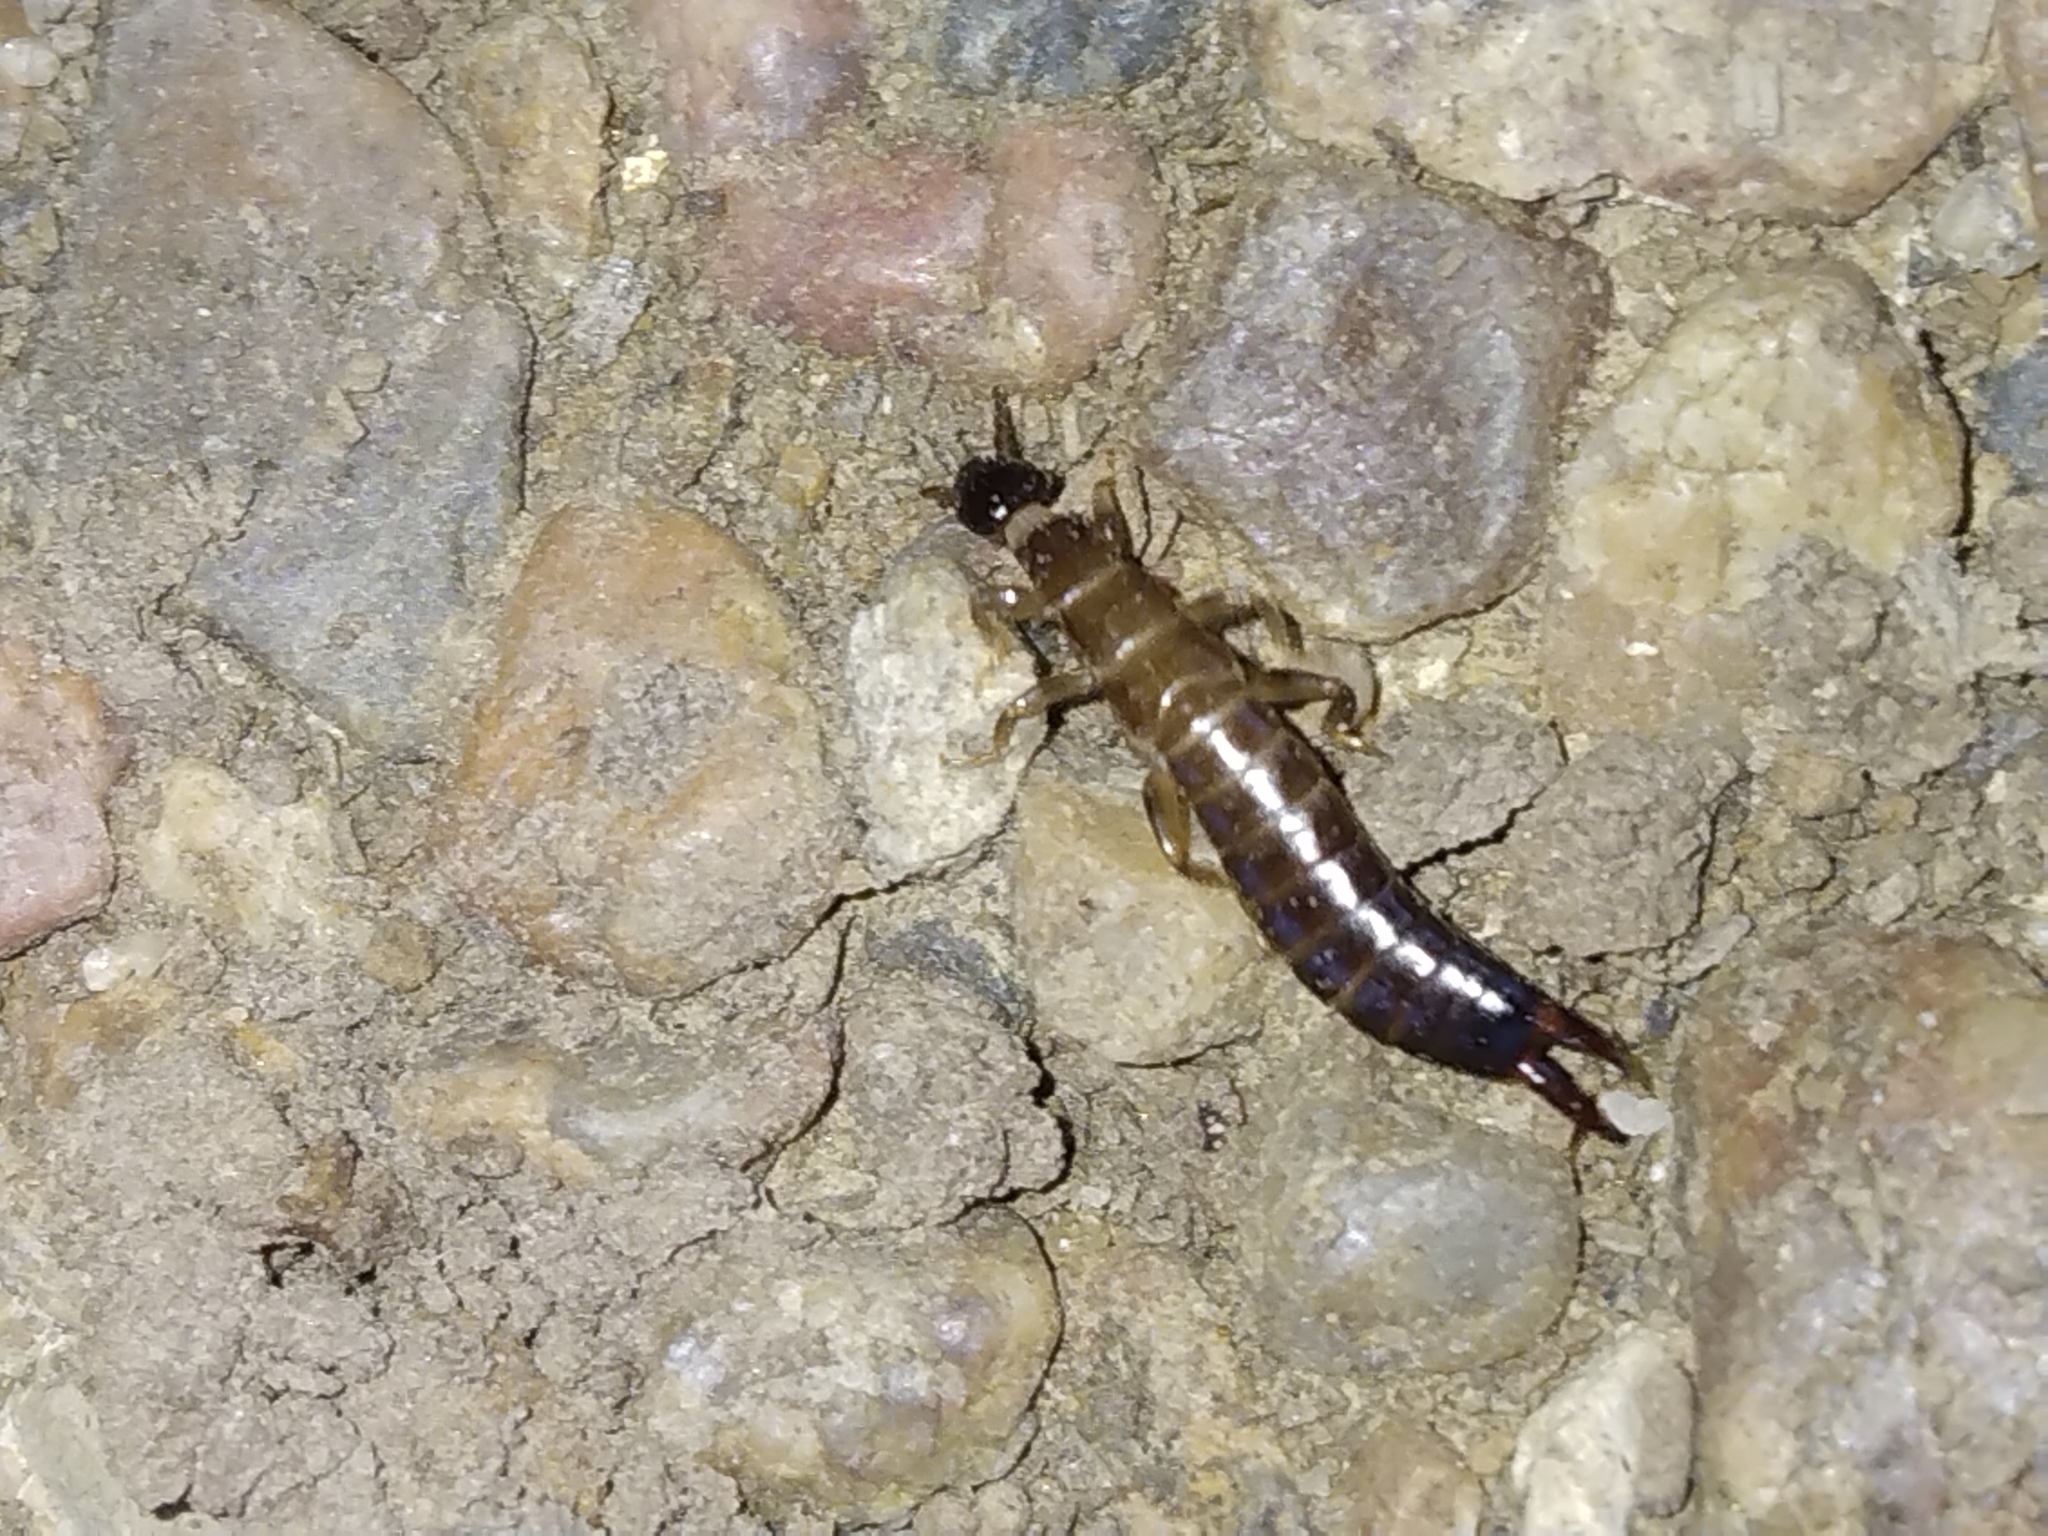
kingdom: Animalia
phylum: Arthropoda
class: Insecta
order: Dermaptera
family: Anisolabididae
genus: Euborellia
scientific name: Euborellia annulipes
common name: Ringlegged earwig
